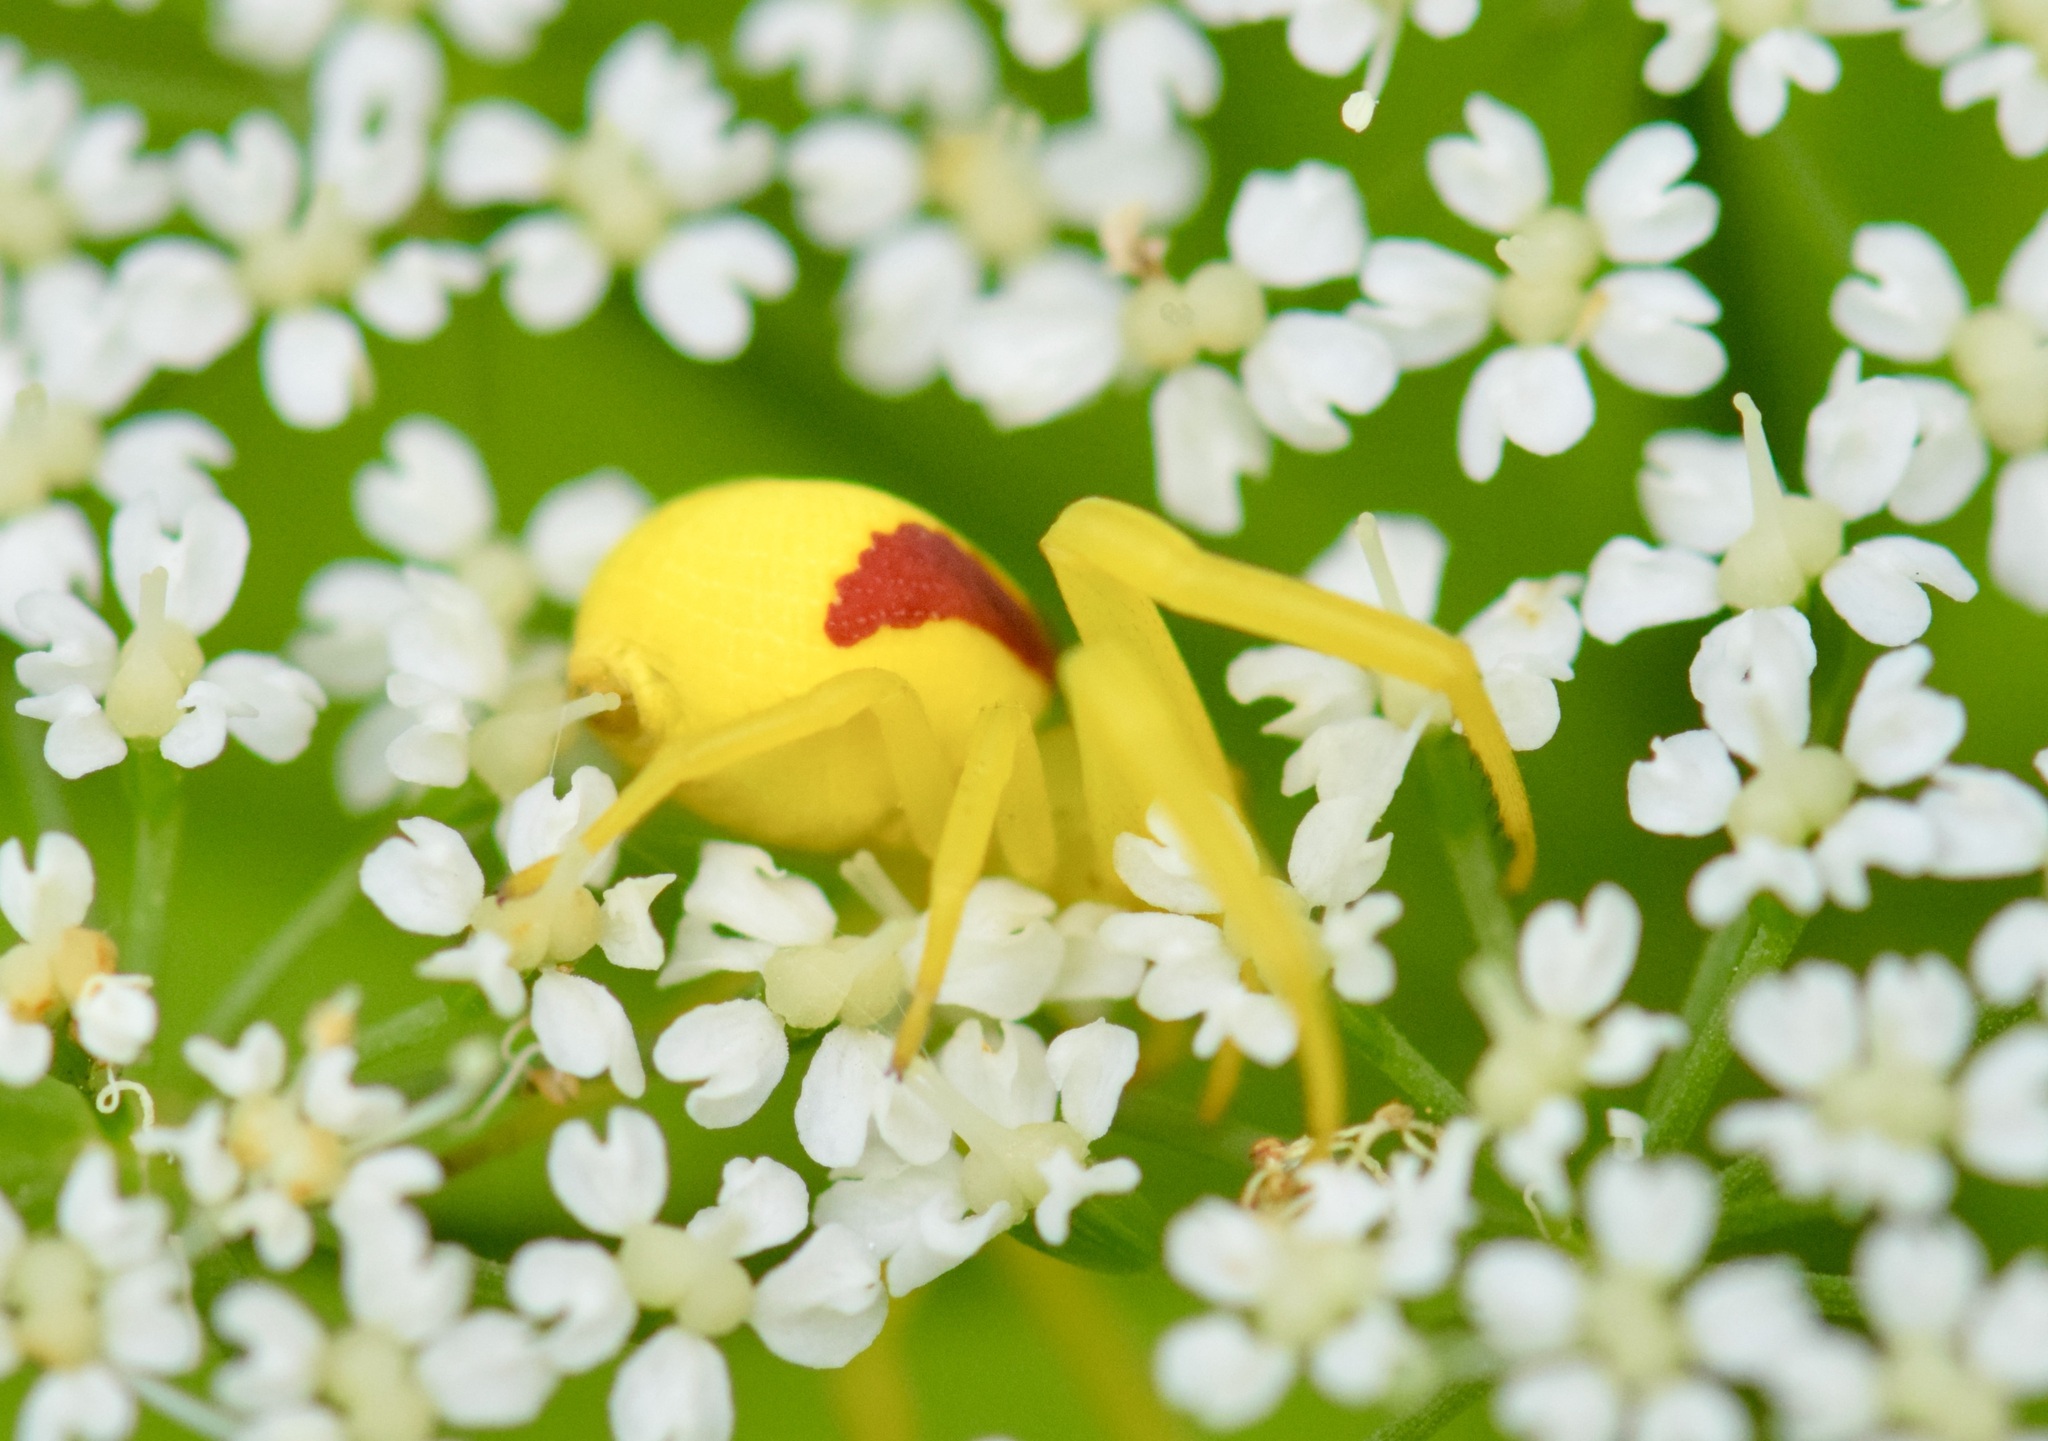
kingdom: Animalia
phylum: Arthropoda
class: Arachnida
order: Araneae
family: Thomisidae
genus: Misumena
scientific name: Misumena vatia
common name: Goldenrod crab spider
